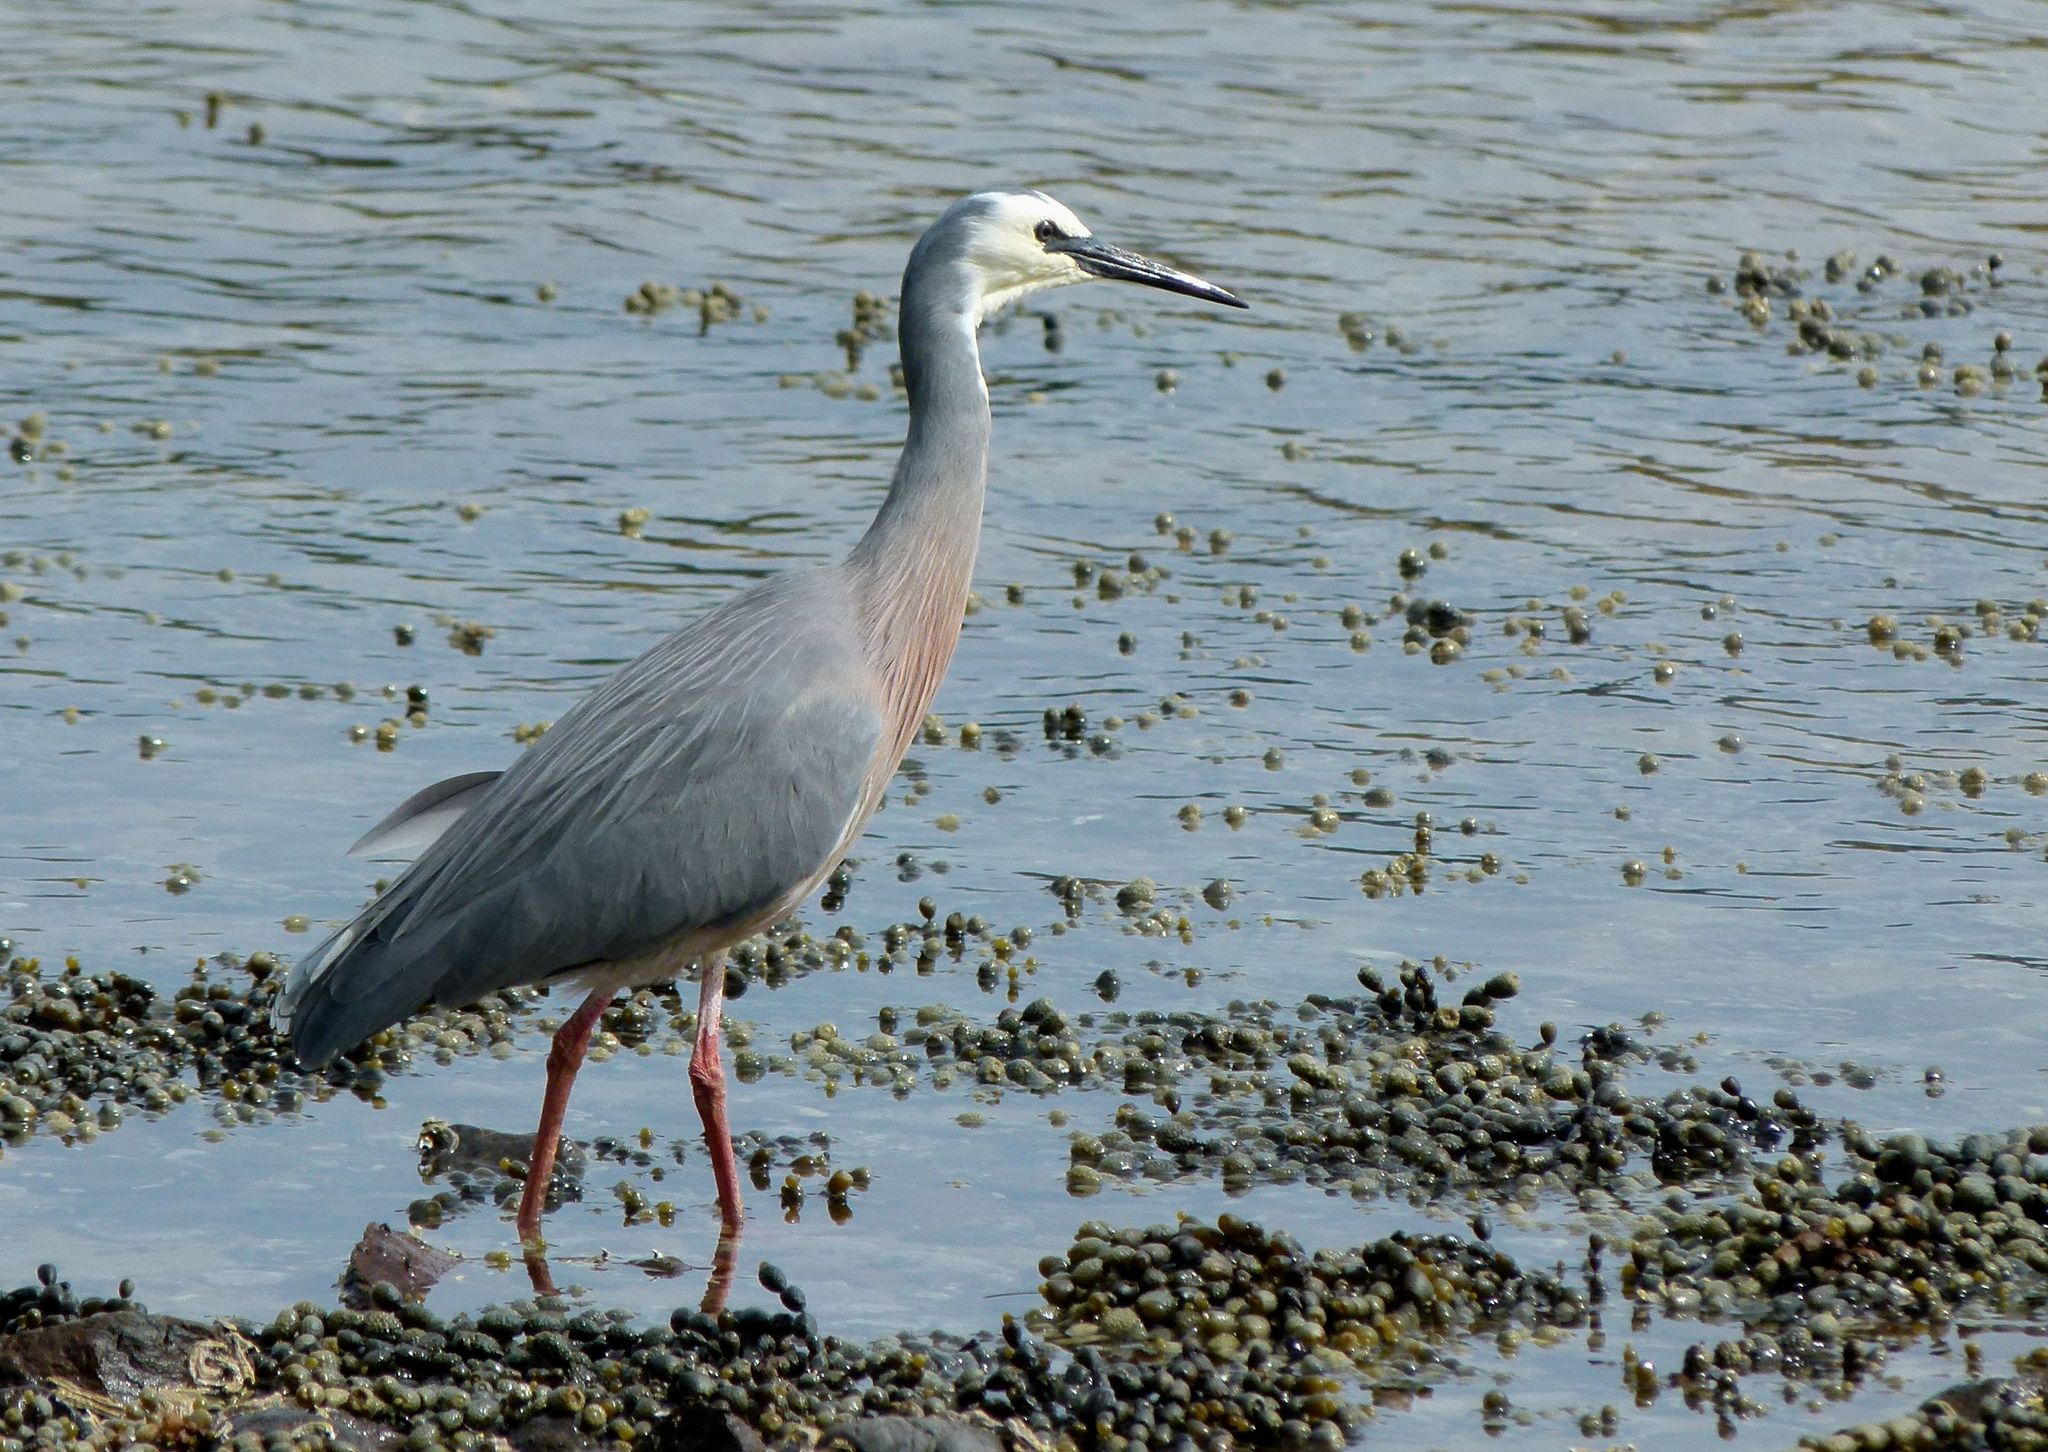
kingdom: Animalia
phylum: Chordata
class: Aves
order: Pelecaniformes
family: Ardeidae
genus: Egretta
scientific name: Egretta novaehollandiae
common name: White-faced heron
